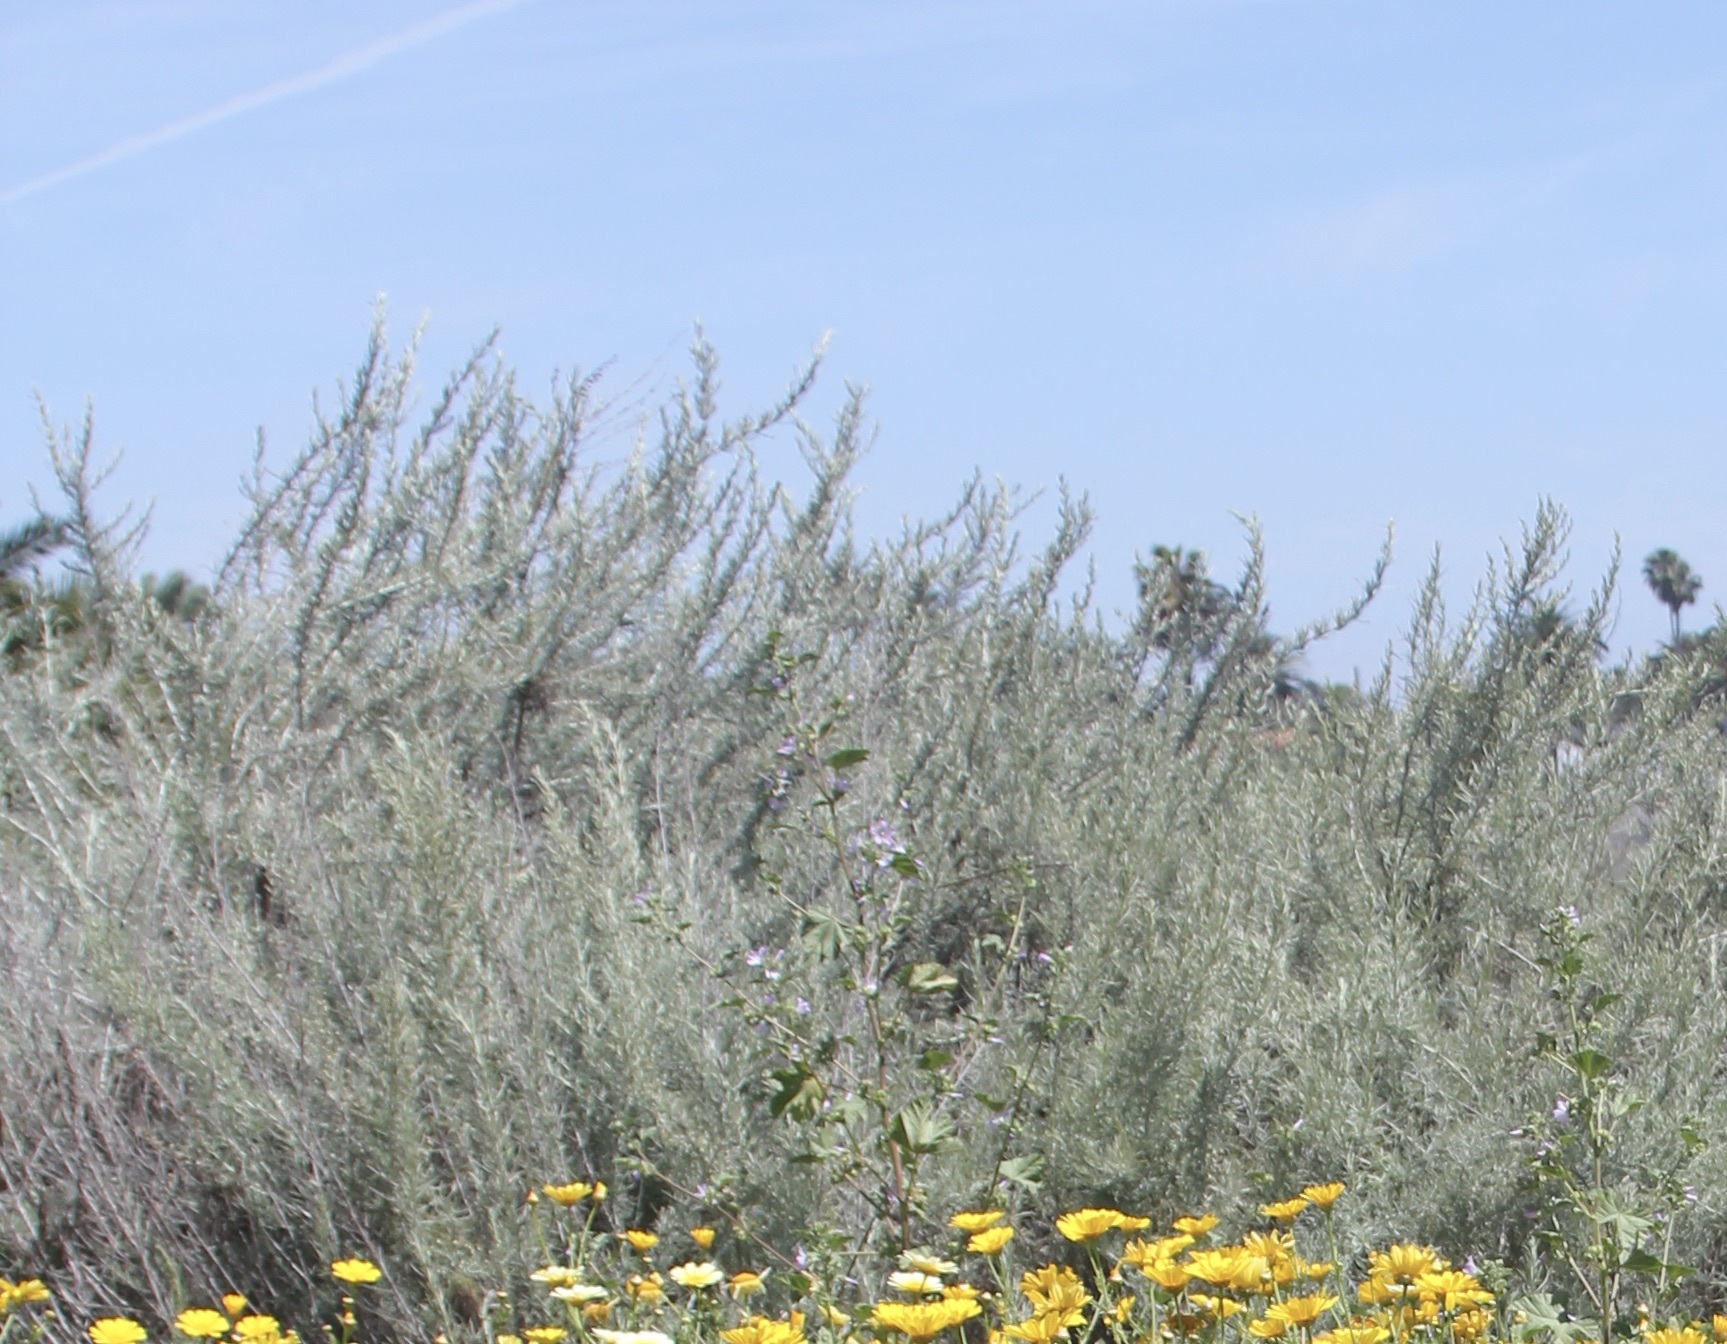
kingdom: Plantae
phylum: Tracheophyta
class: Magnoliopsida
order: Asterales
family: Asteraceae
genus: Artemisia
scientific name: Artemisia californica
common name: California sagebrush
